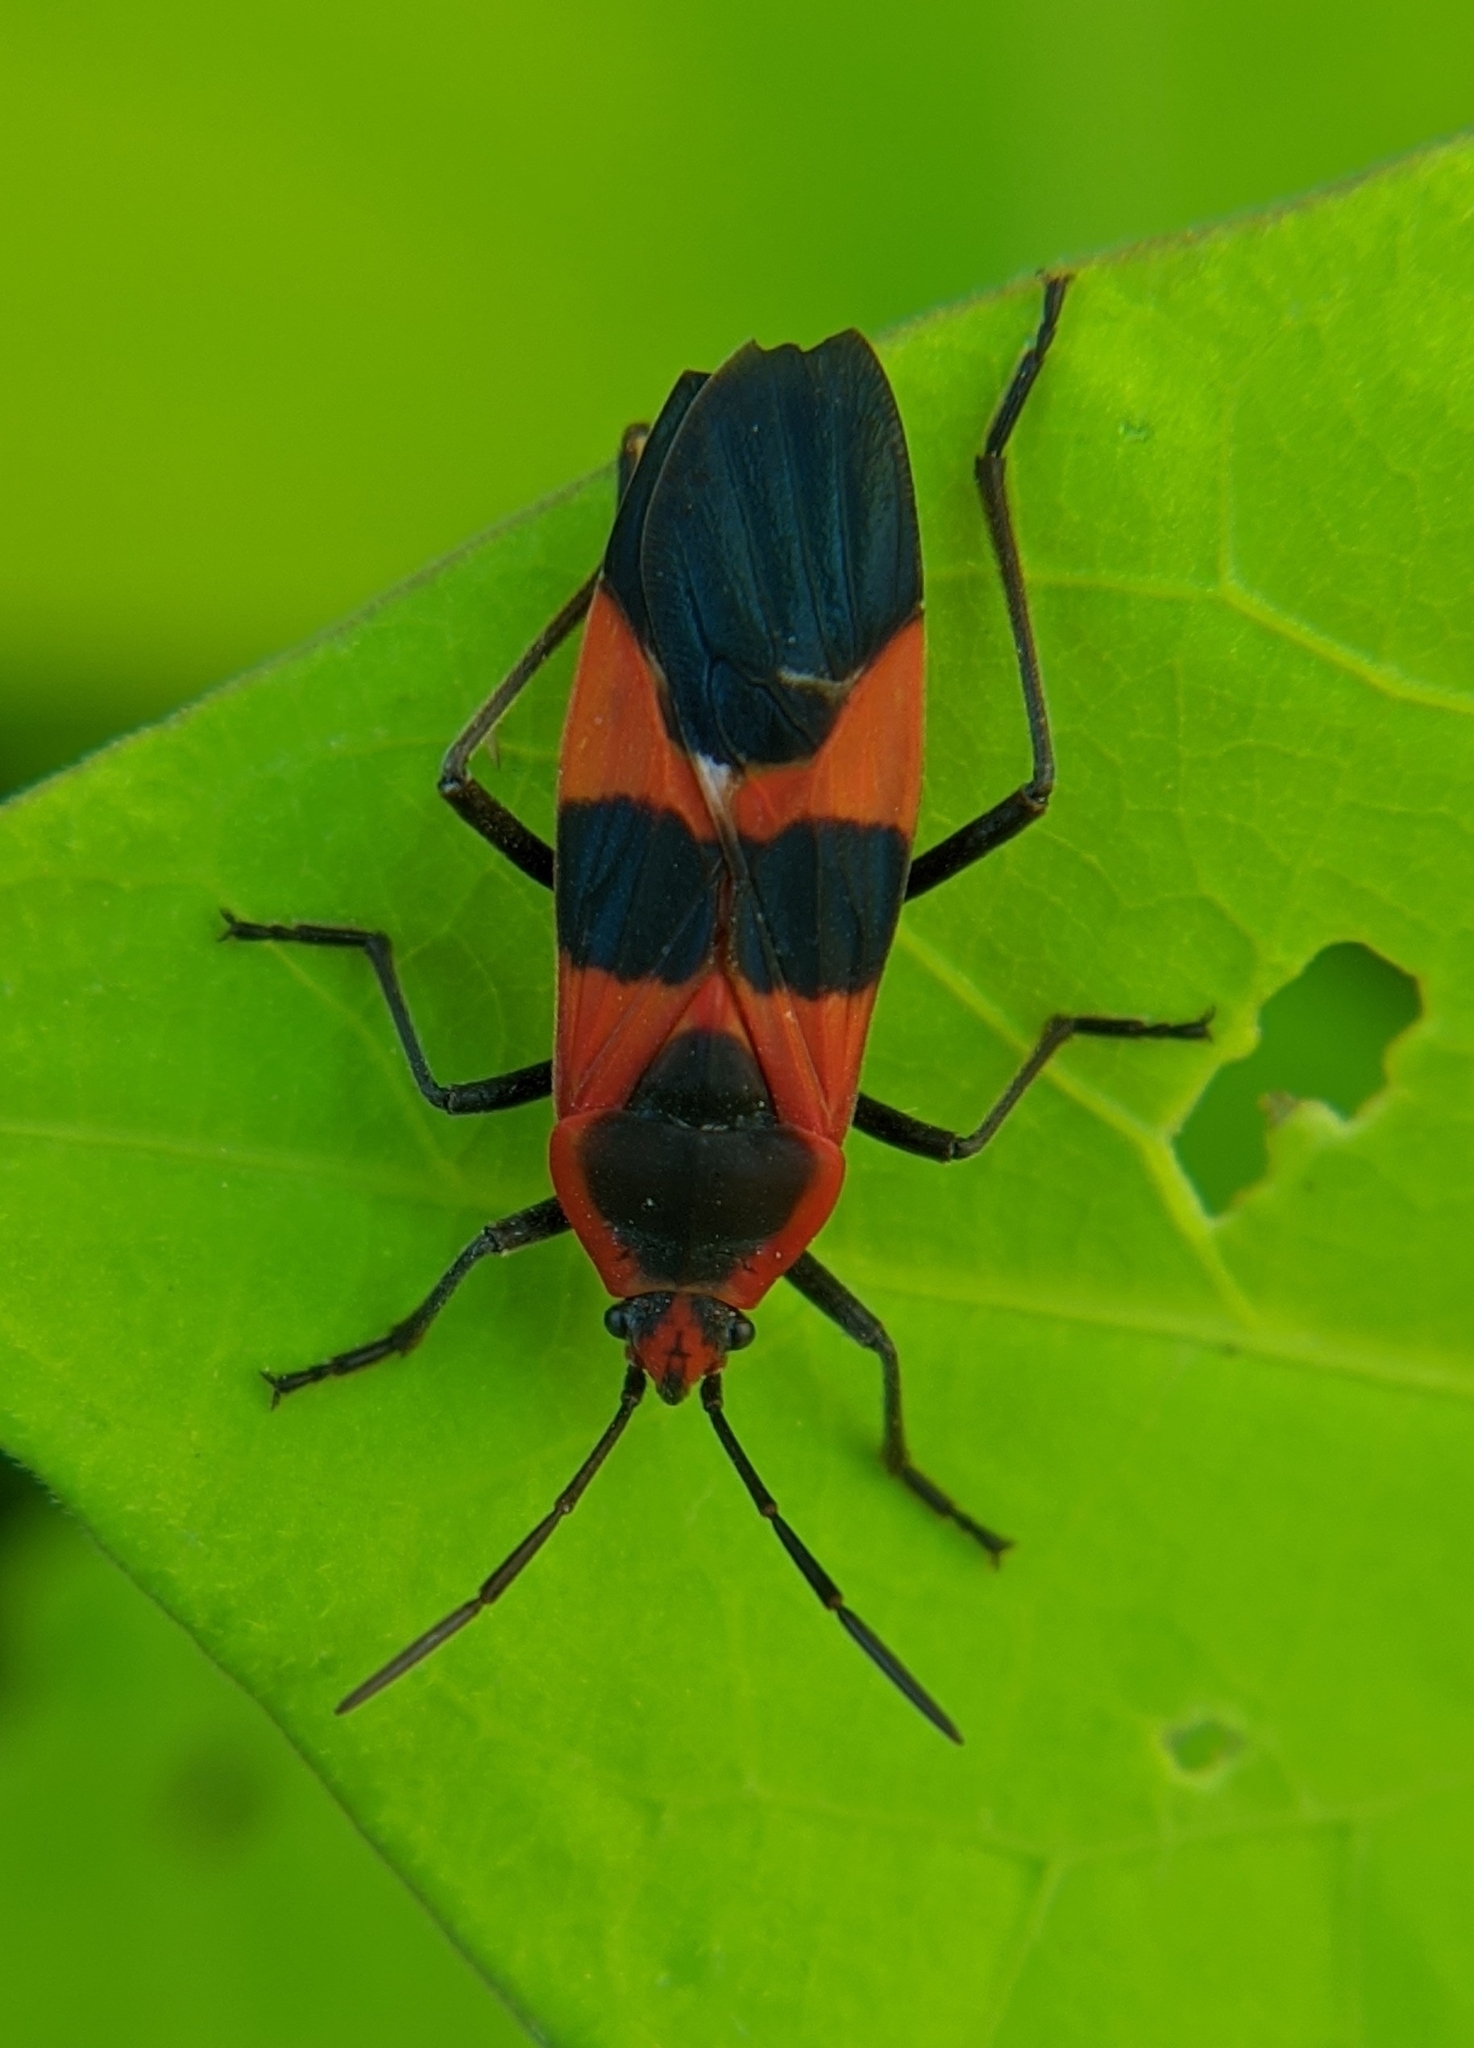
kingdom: Animalia
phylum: Arthropoda
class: Insecta
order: Hemiptera
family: Lygaeidae
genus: Oncopeltus
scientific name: Oncopeltus fasciatus
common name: Large milkweed bug
